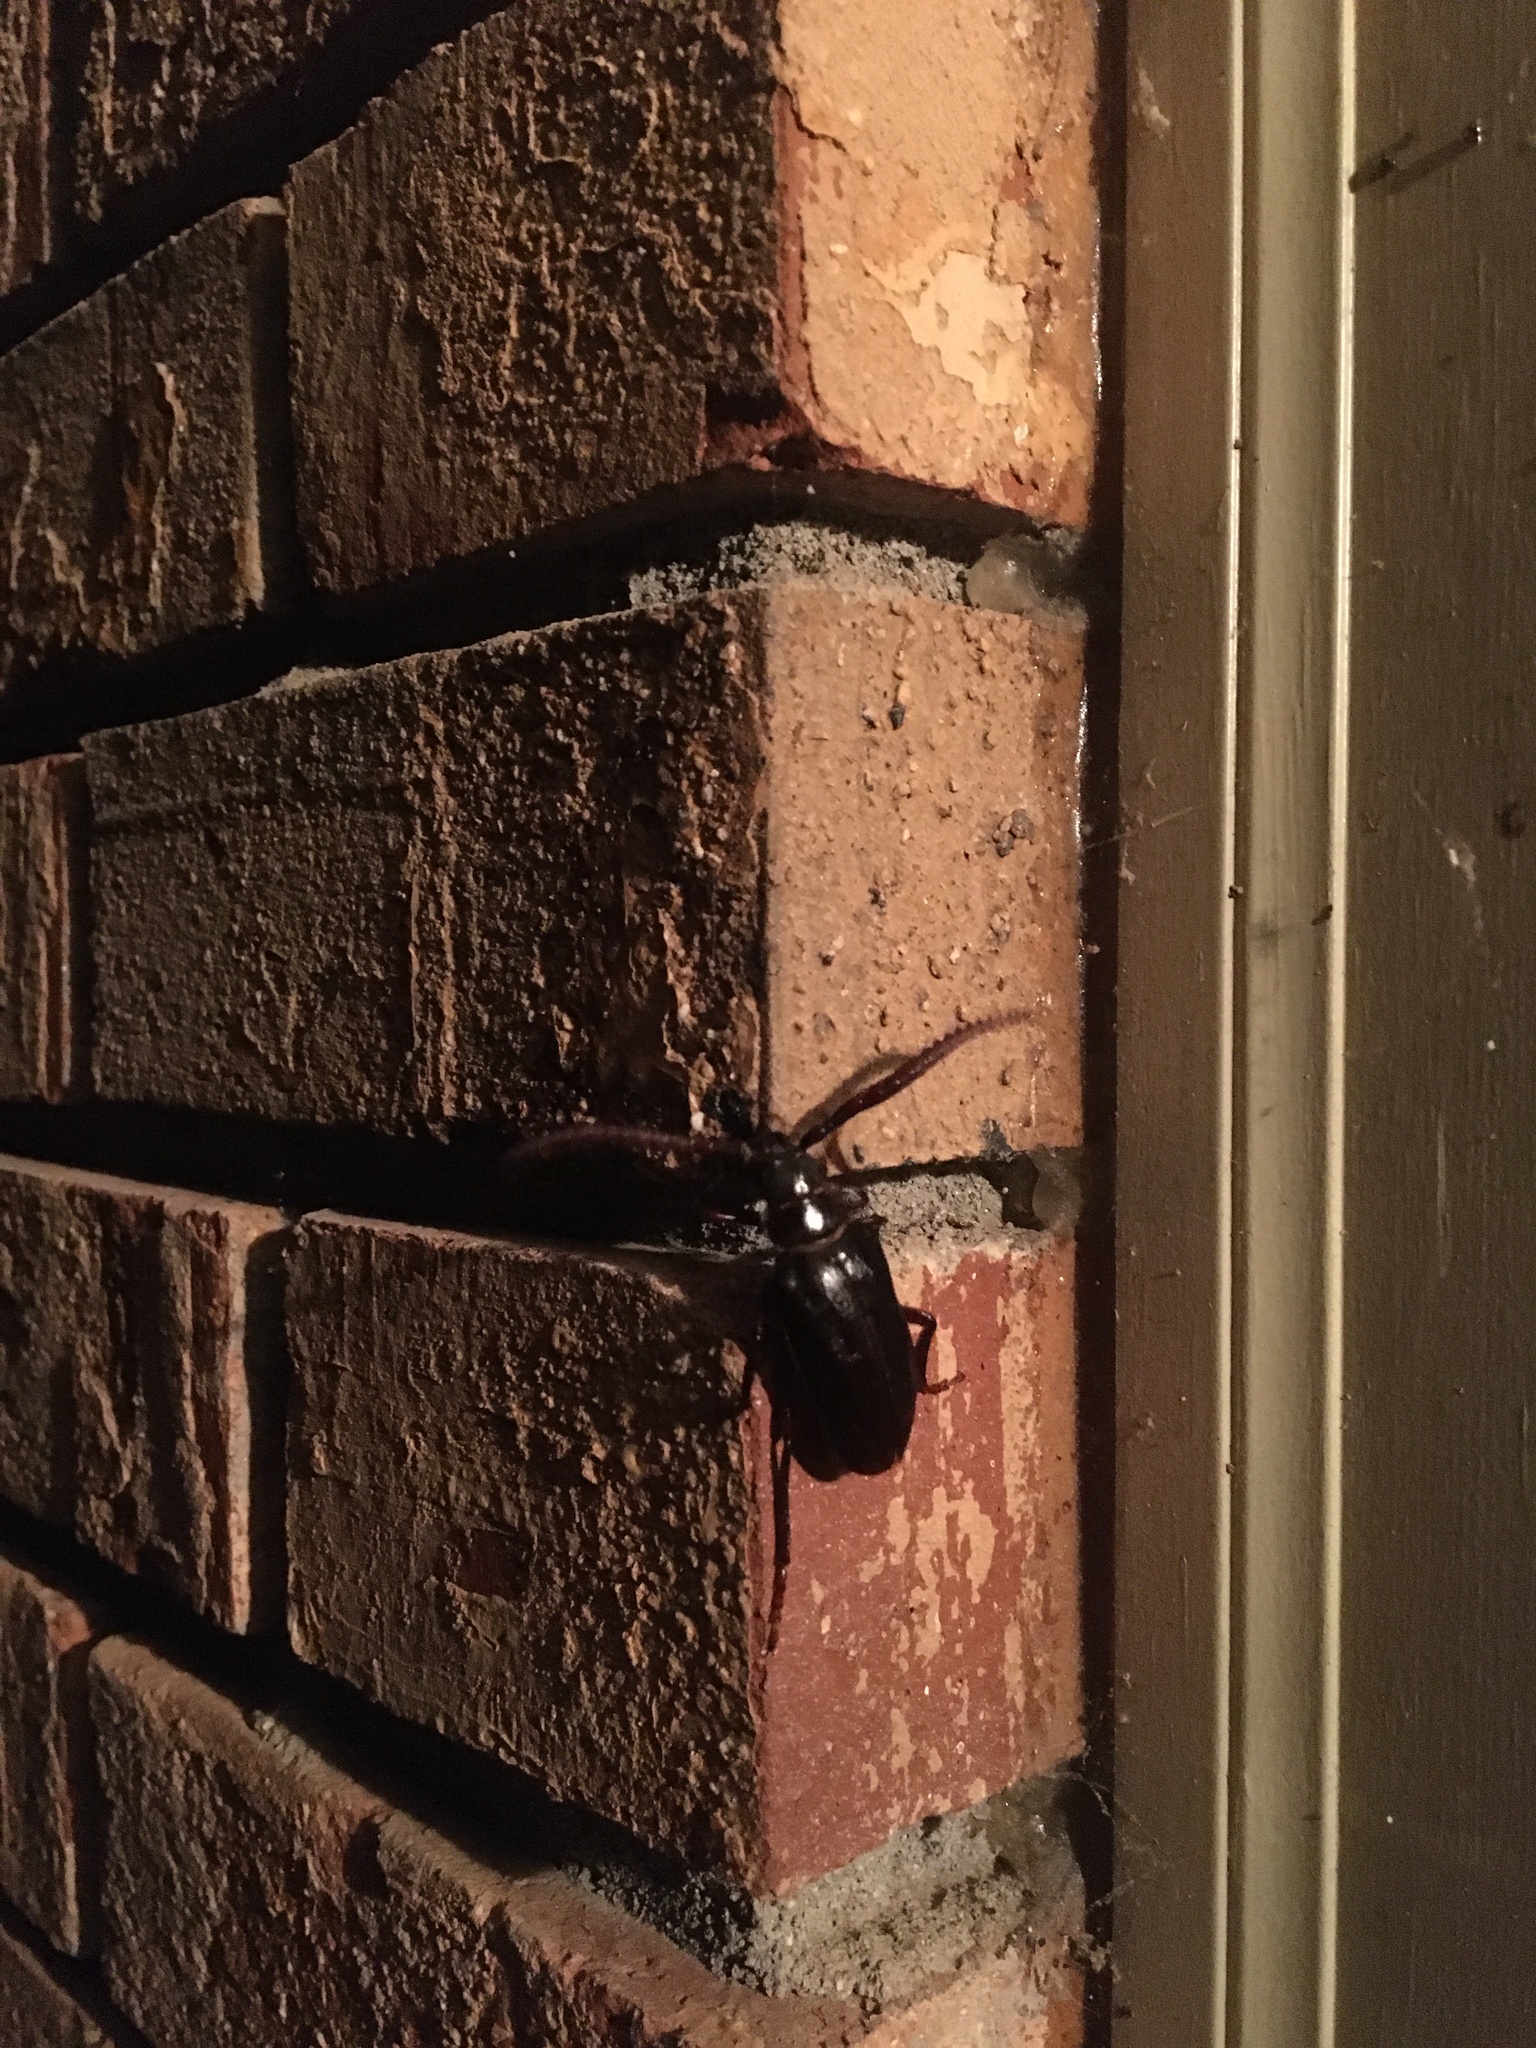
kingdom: Animalia
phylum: Arthropoda
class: Insecta
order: Coleoptera
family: Cerambycidae
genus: Prionus
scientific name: Prionus imbricornis
